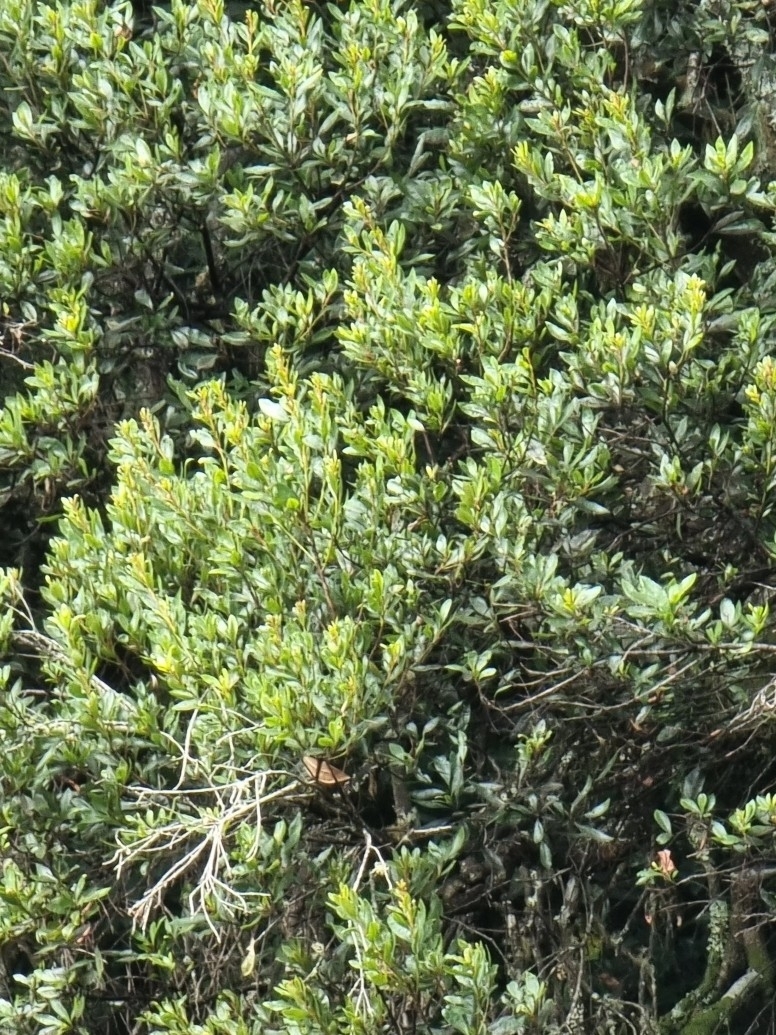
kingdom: Plantae
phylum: Tracheophyta
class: Magnoliopsida
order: Fagales
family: Myricaceae
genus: Morella
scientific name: Morella faya
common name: Firetree
